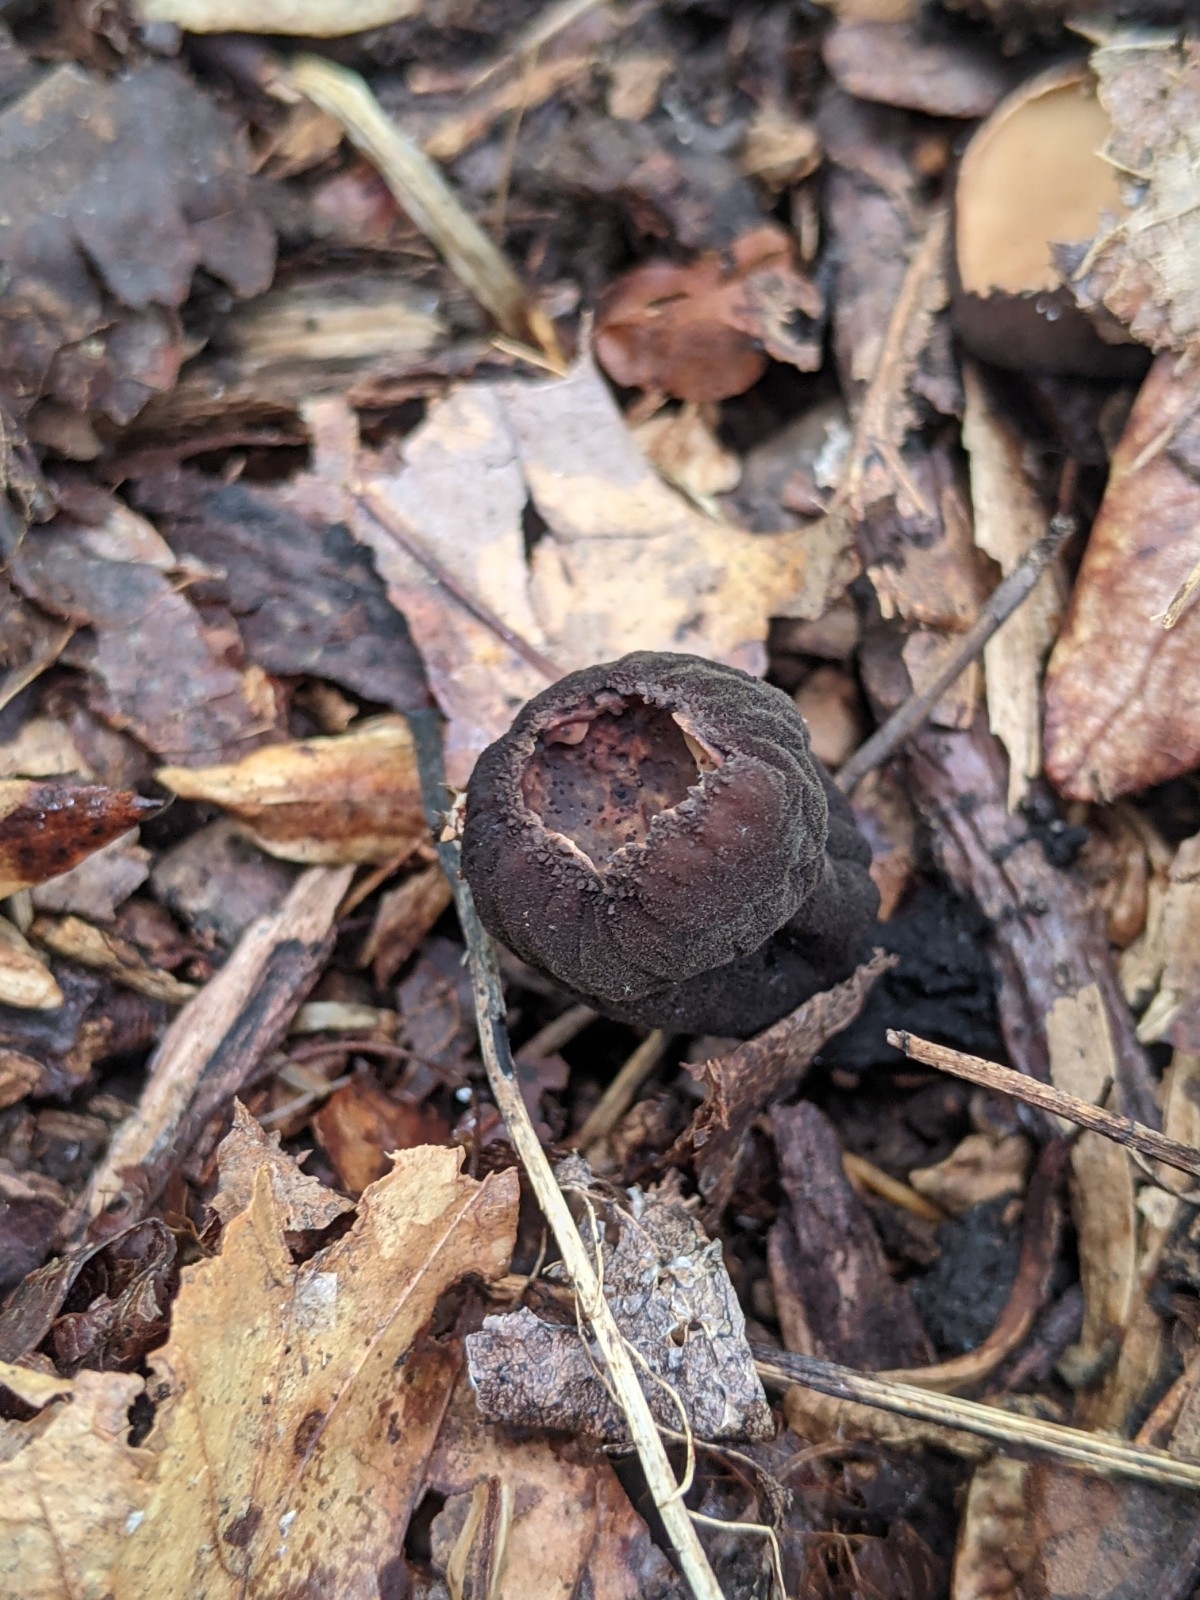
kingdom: Fungi
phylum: Ascomycota
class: Pezizomycetes
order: Pezizales
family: Sarcosomataceae
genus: Galiella
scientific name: Galiella rufa
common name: Hairy rubber cup
